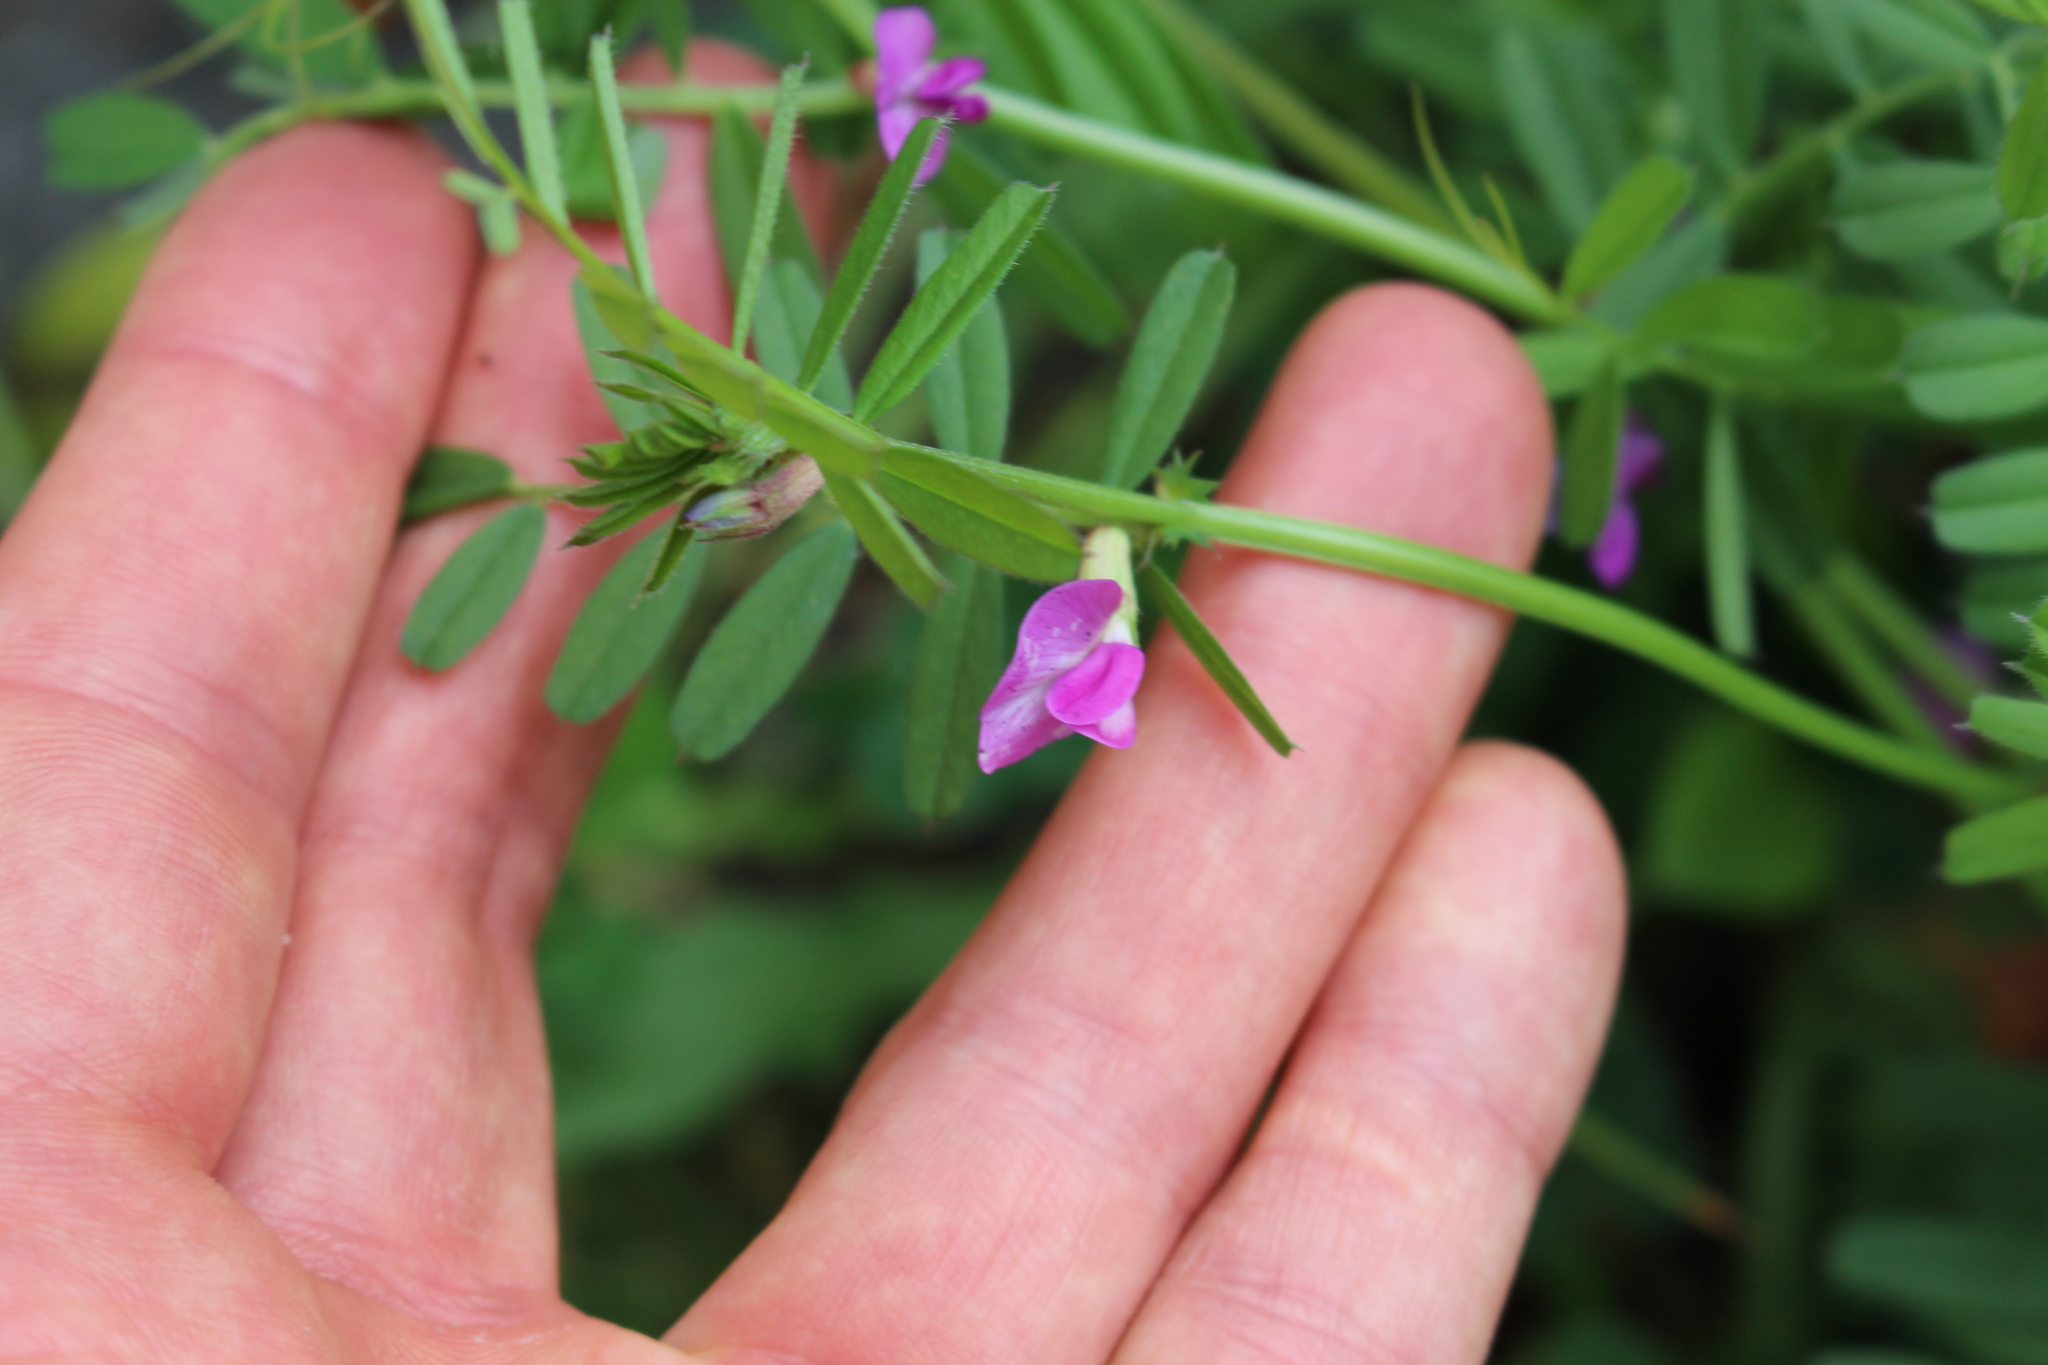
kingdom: Plantae
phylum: Tracheophyta
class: Magnoliopsida
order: Fabales
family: Fabaceae
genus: Vicia
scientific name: Vicia sativa
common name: Garden vetch
